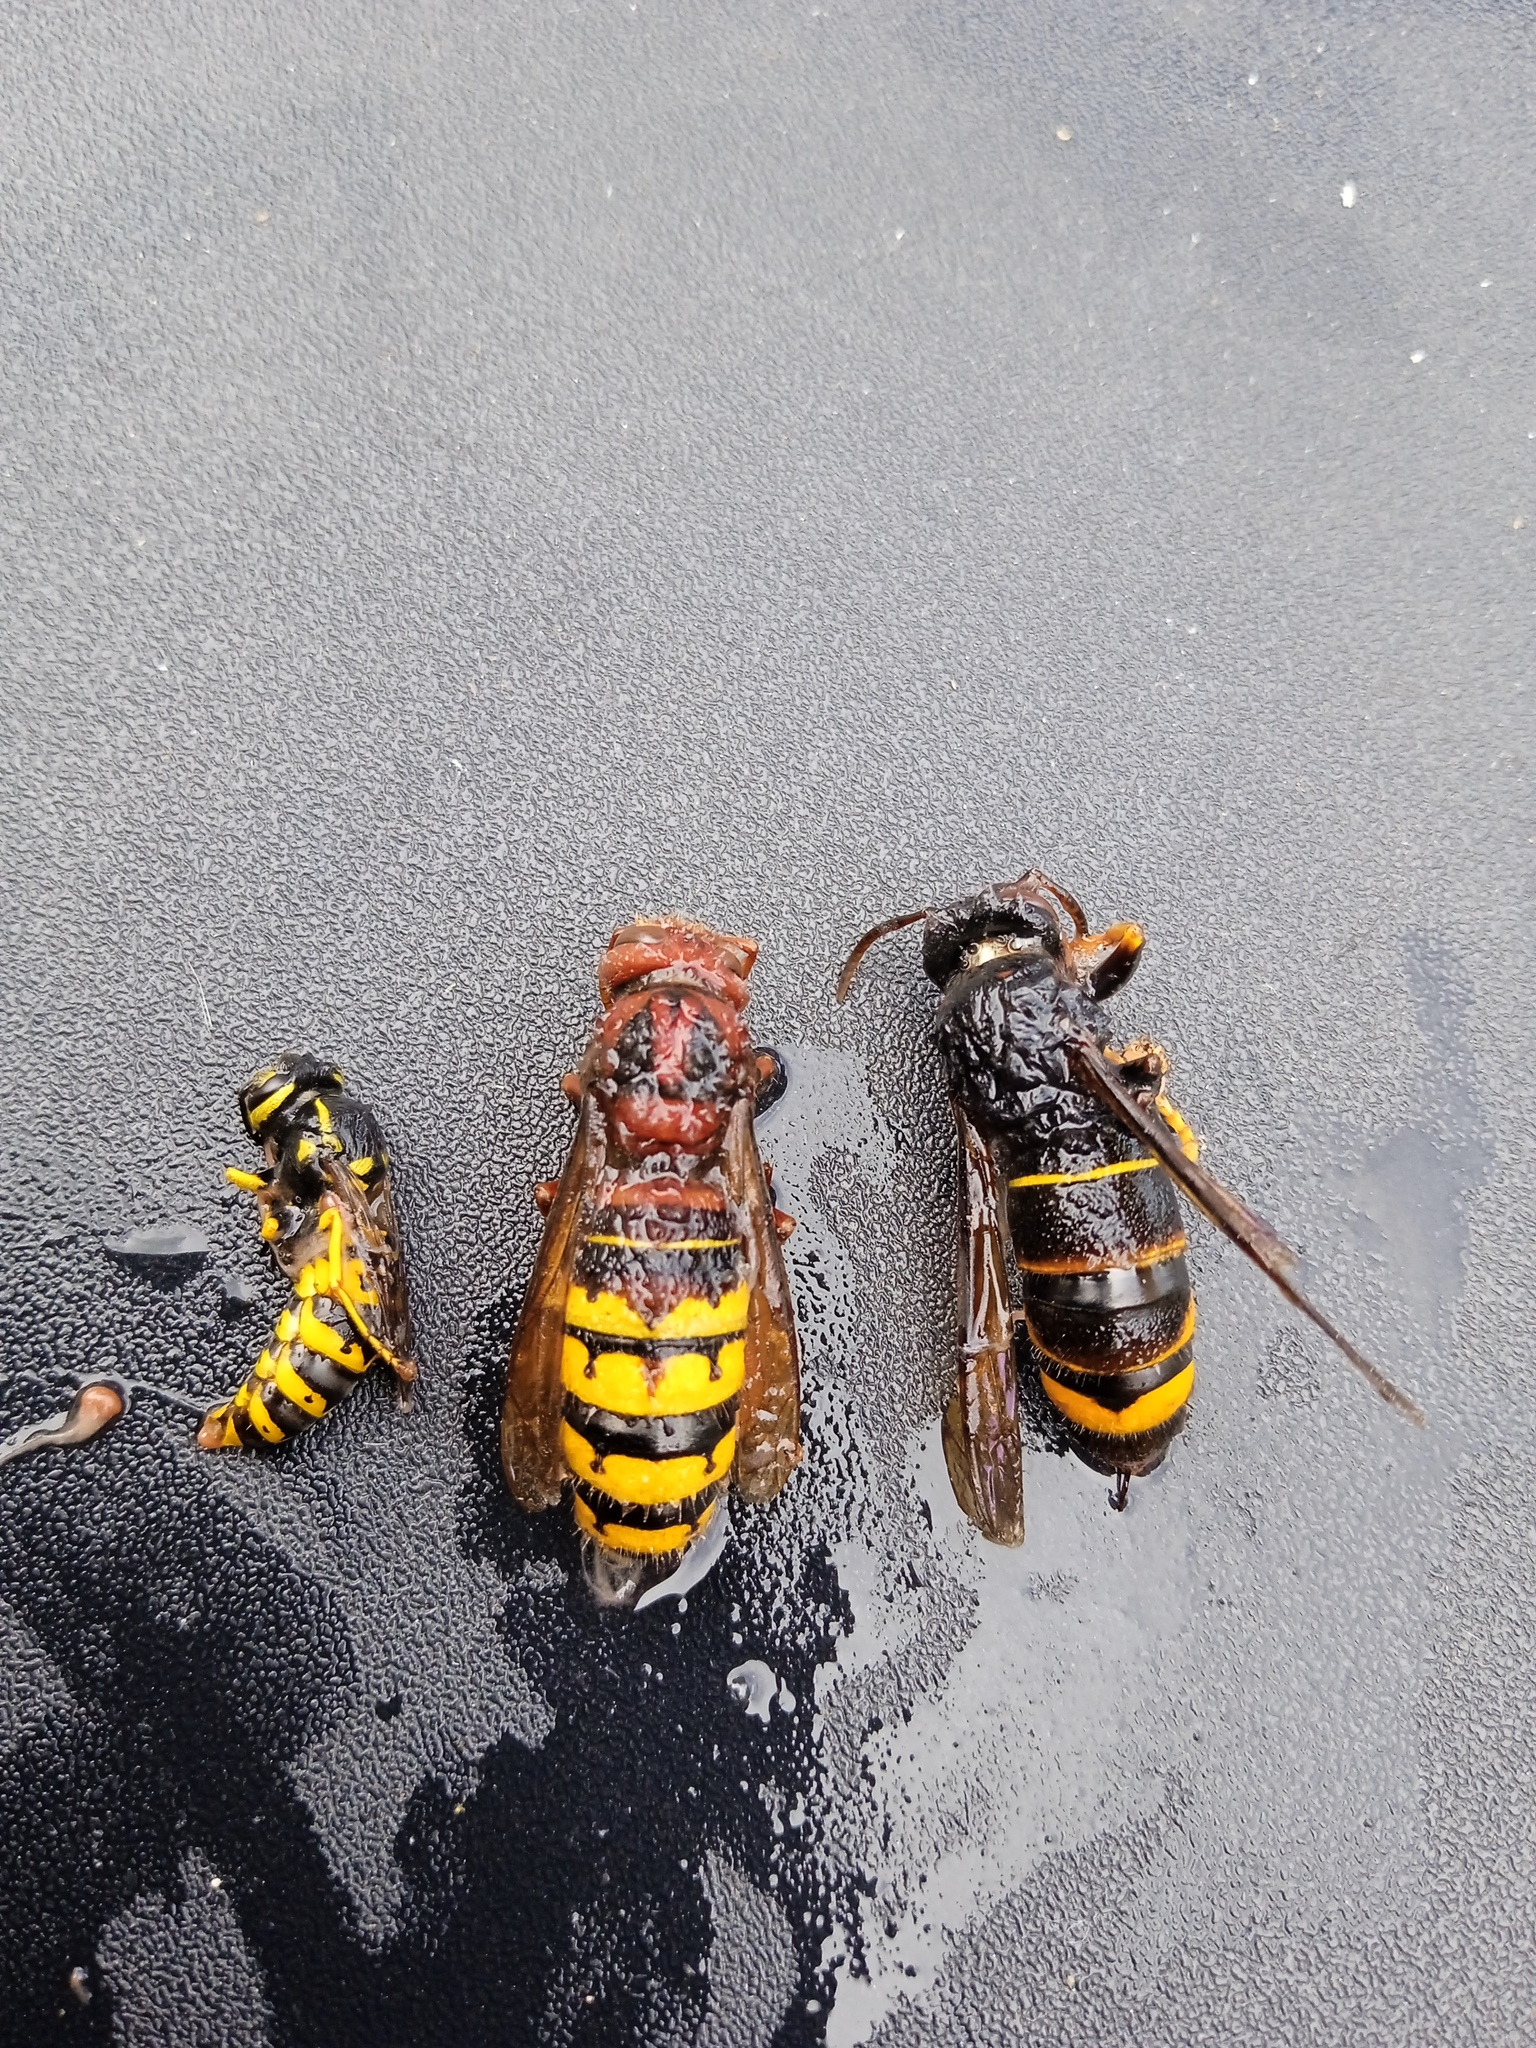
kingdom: Animalia
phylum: Arthropoda
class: Insecta
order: Hymenoptera
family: Vespidae
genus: Vespa
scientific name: Vespa velutina
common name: Asian hornet
